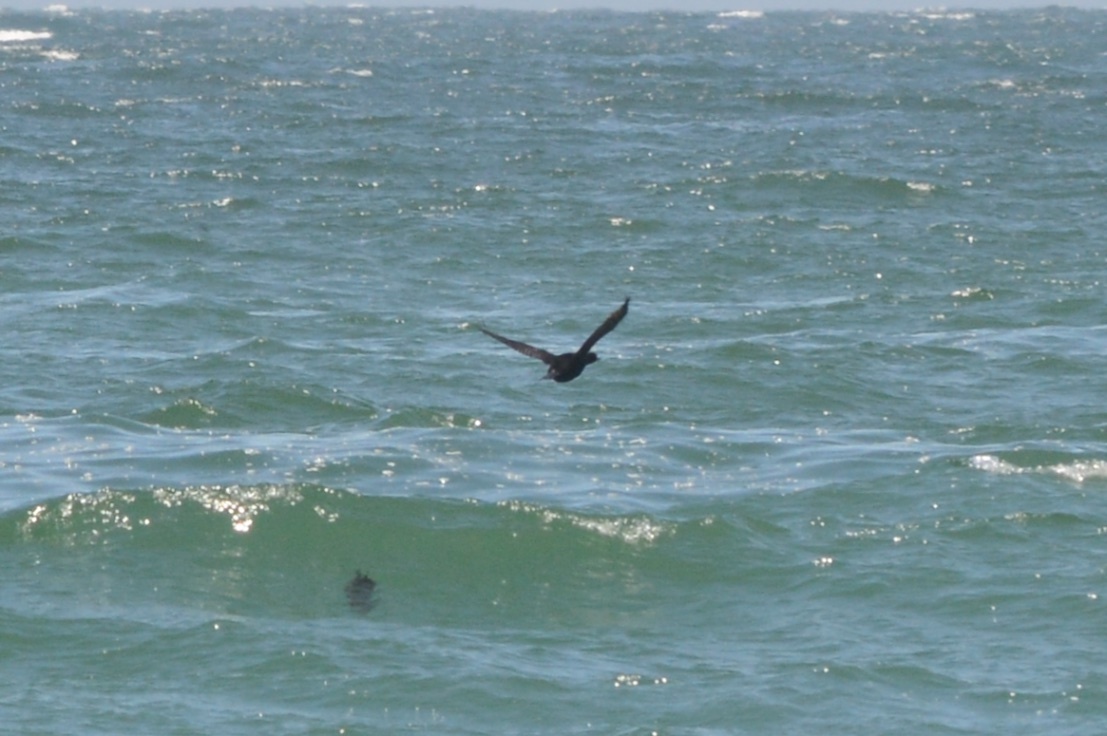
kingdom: Animalia
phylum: Chordata
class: Aves
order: Suliformes
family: Phalacrocoracidae
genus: Phalacrocorax
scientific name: Phalacrocorax auritus
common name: Double-crested cormorant
